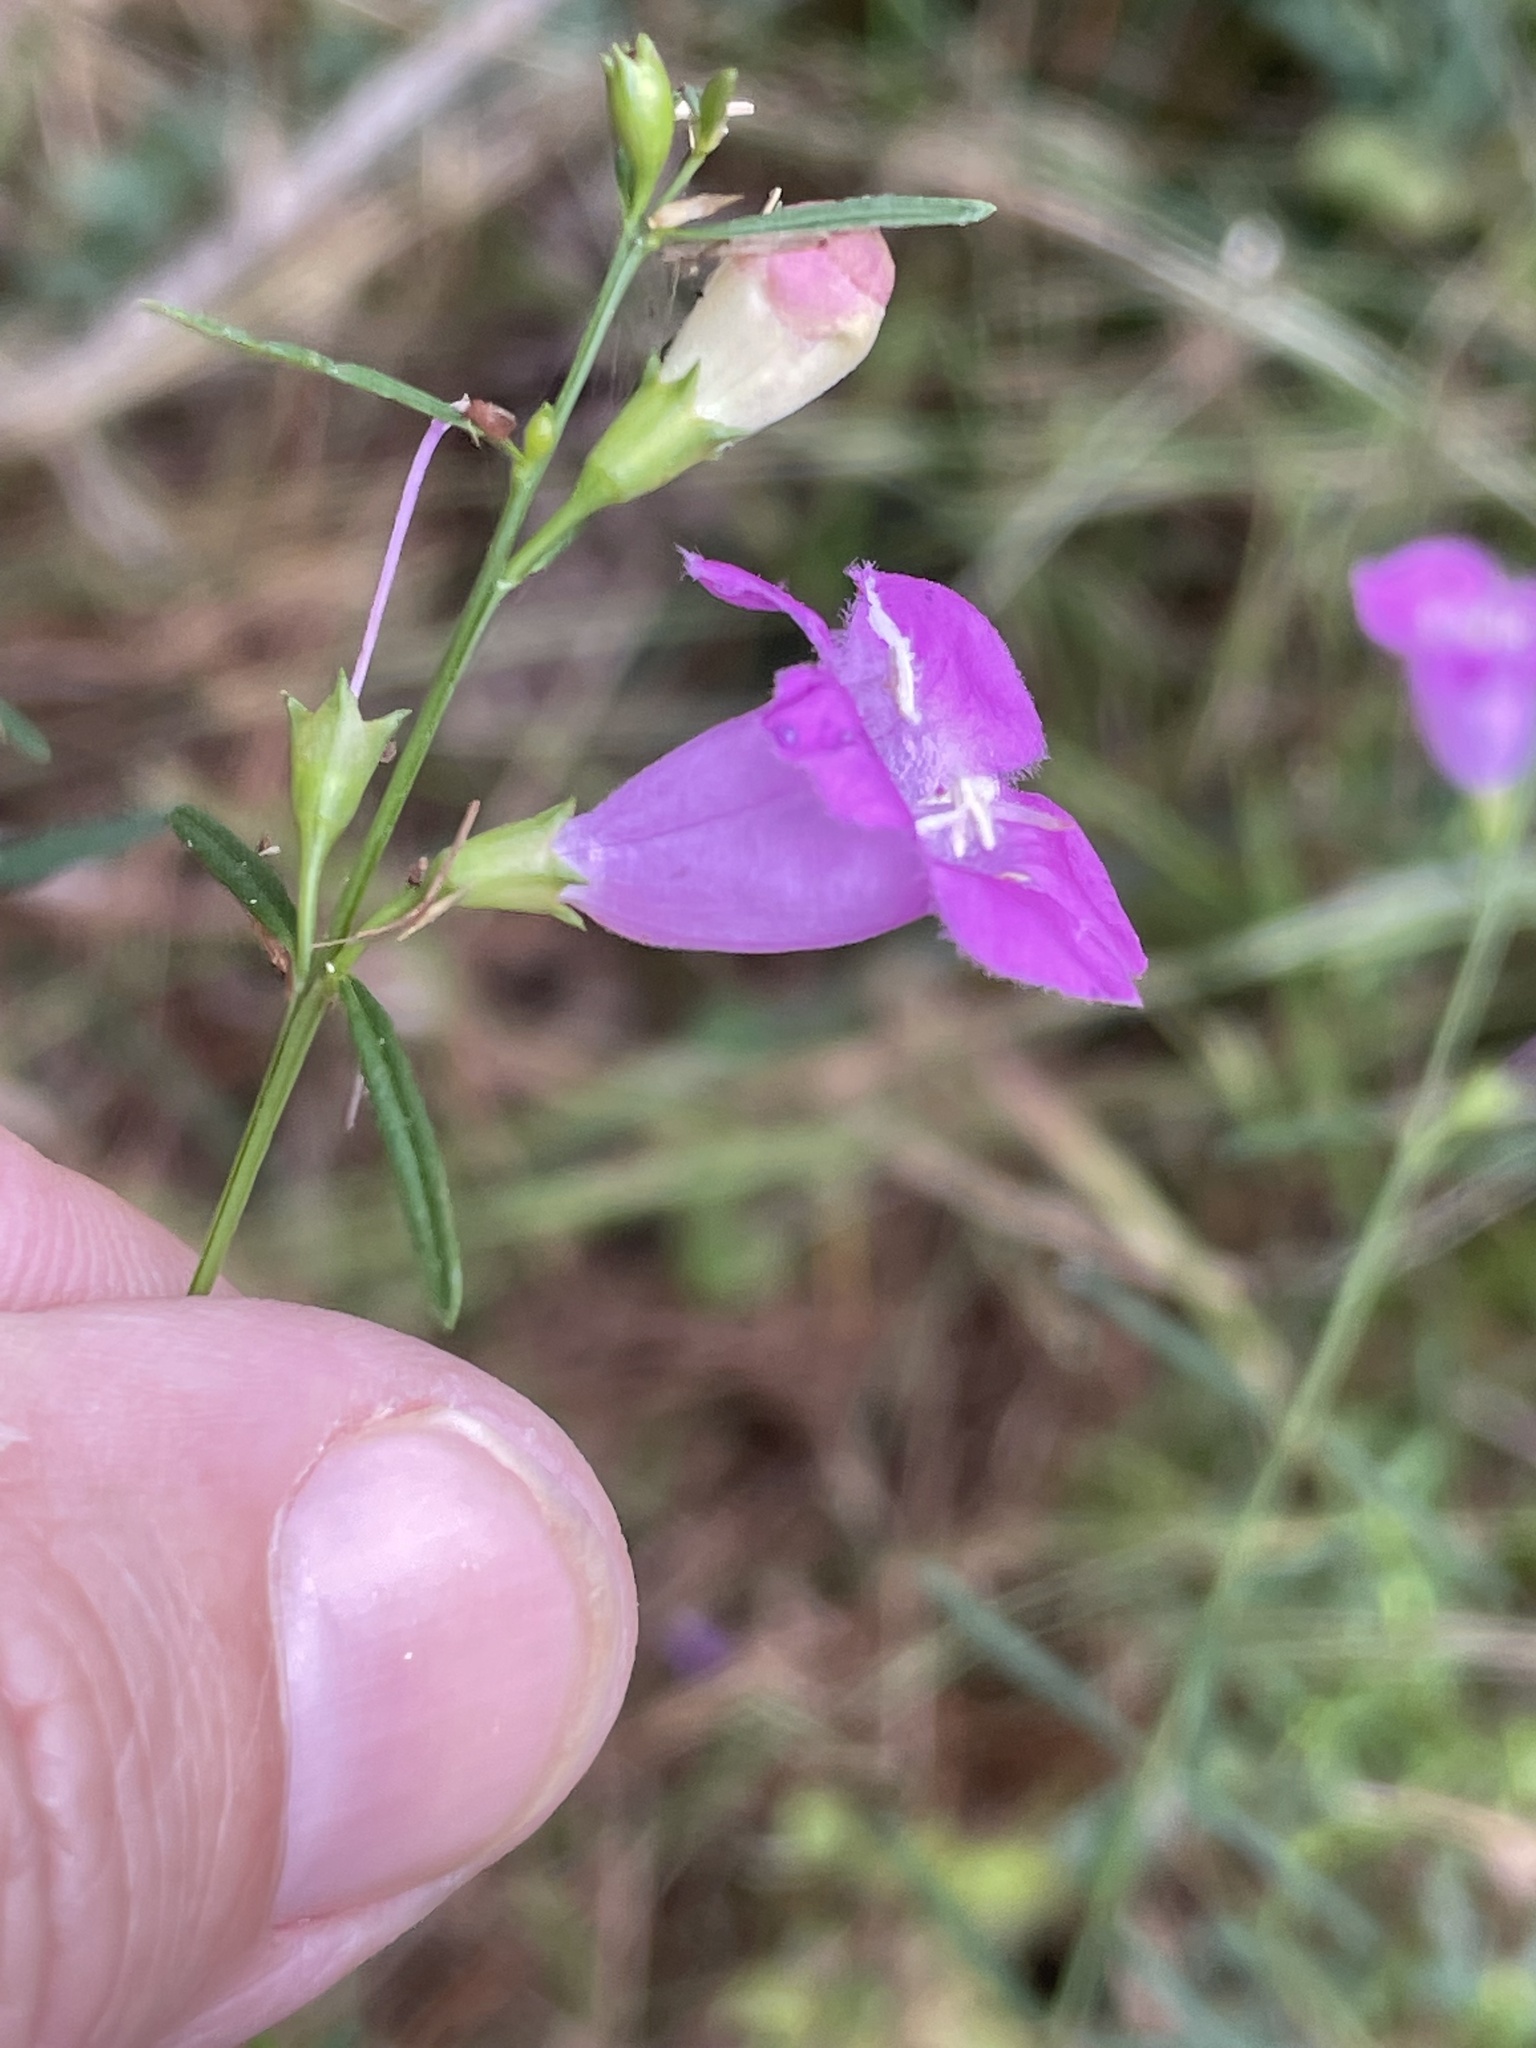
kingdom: Plantae
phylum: Tracheophyta
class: Magnoliopsida
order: Lamiales
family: Orobanchaceae
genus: Agalinis
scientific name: Agalinis purpurea
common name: Purple false foxglove
